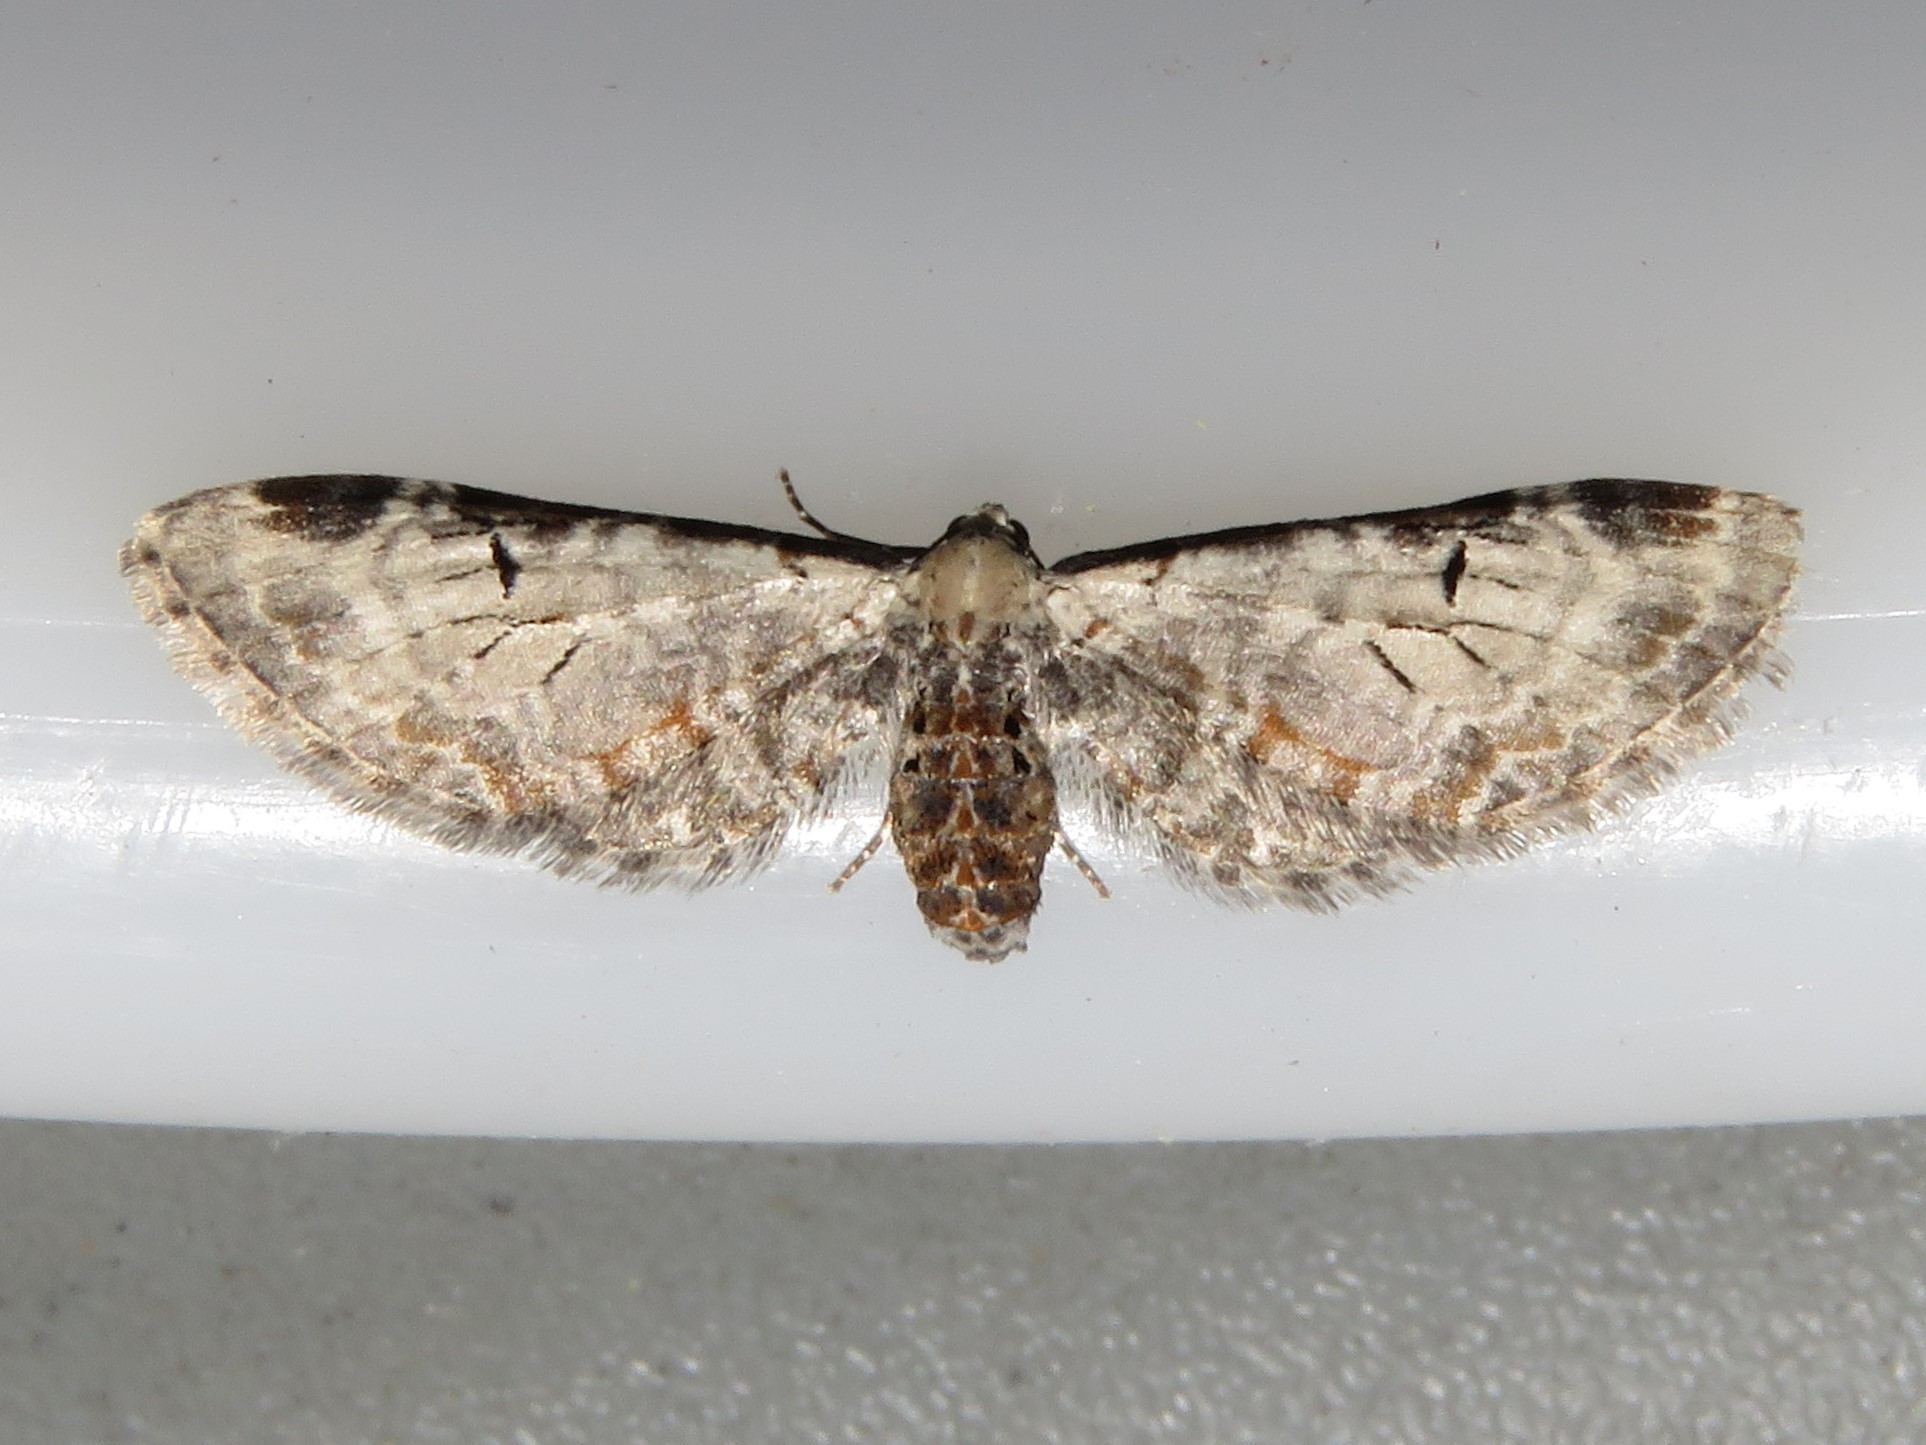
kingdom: Animalia
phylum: Arthropoda
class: Insecta
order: Lepidoptera
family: Geometridae
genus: Eupithecia
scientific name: Eupithecia ravocostaliata
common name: Great varigated pug
